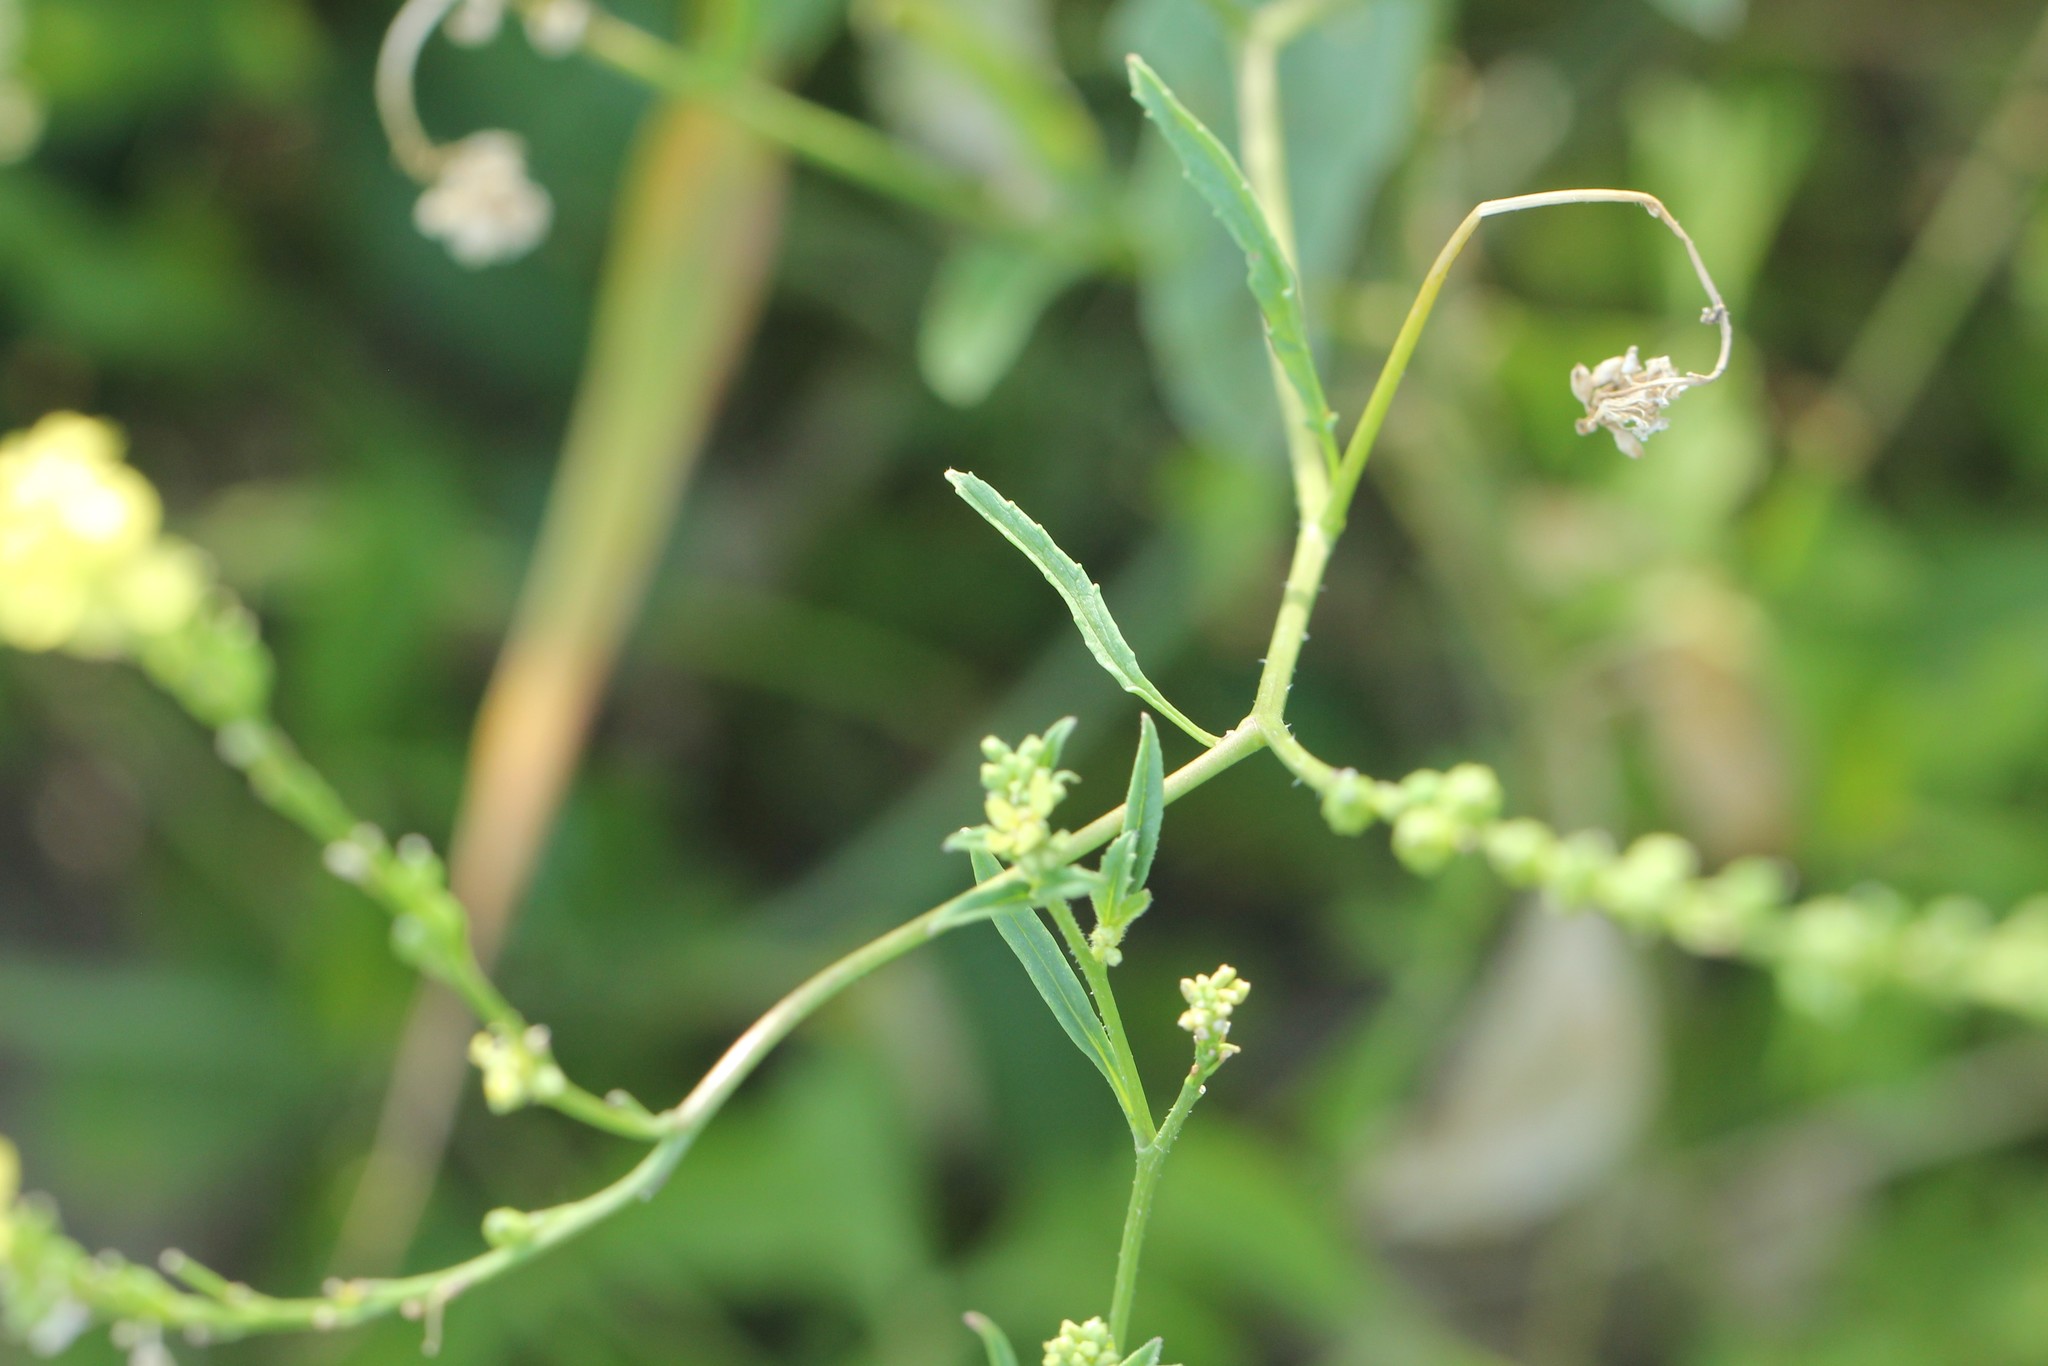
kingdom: Plantae
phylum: Tracheophyta
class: Magnoliopsida
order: Brassicales
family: Brassicaceae
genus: Rapistrum
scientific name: Rapistrum rugosum
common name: Annual bastardcabbage
